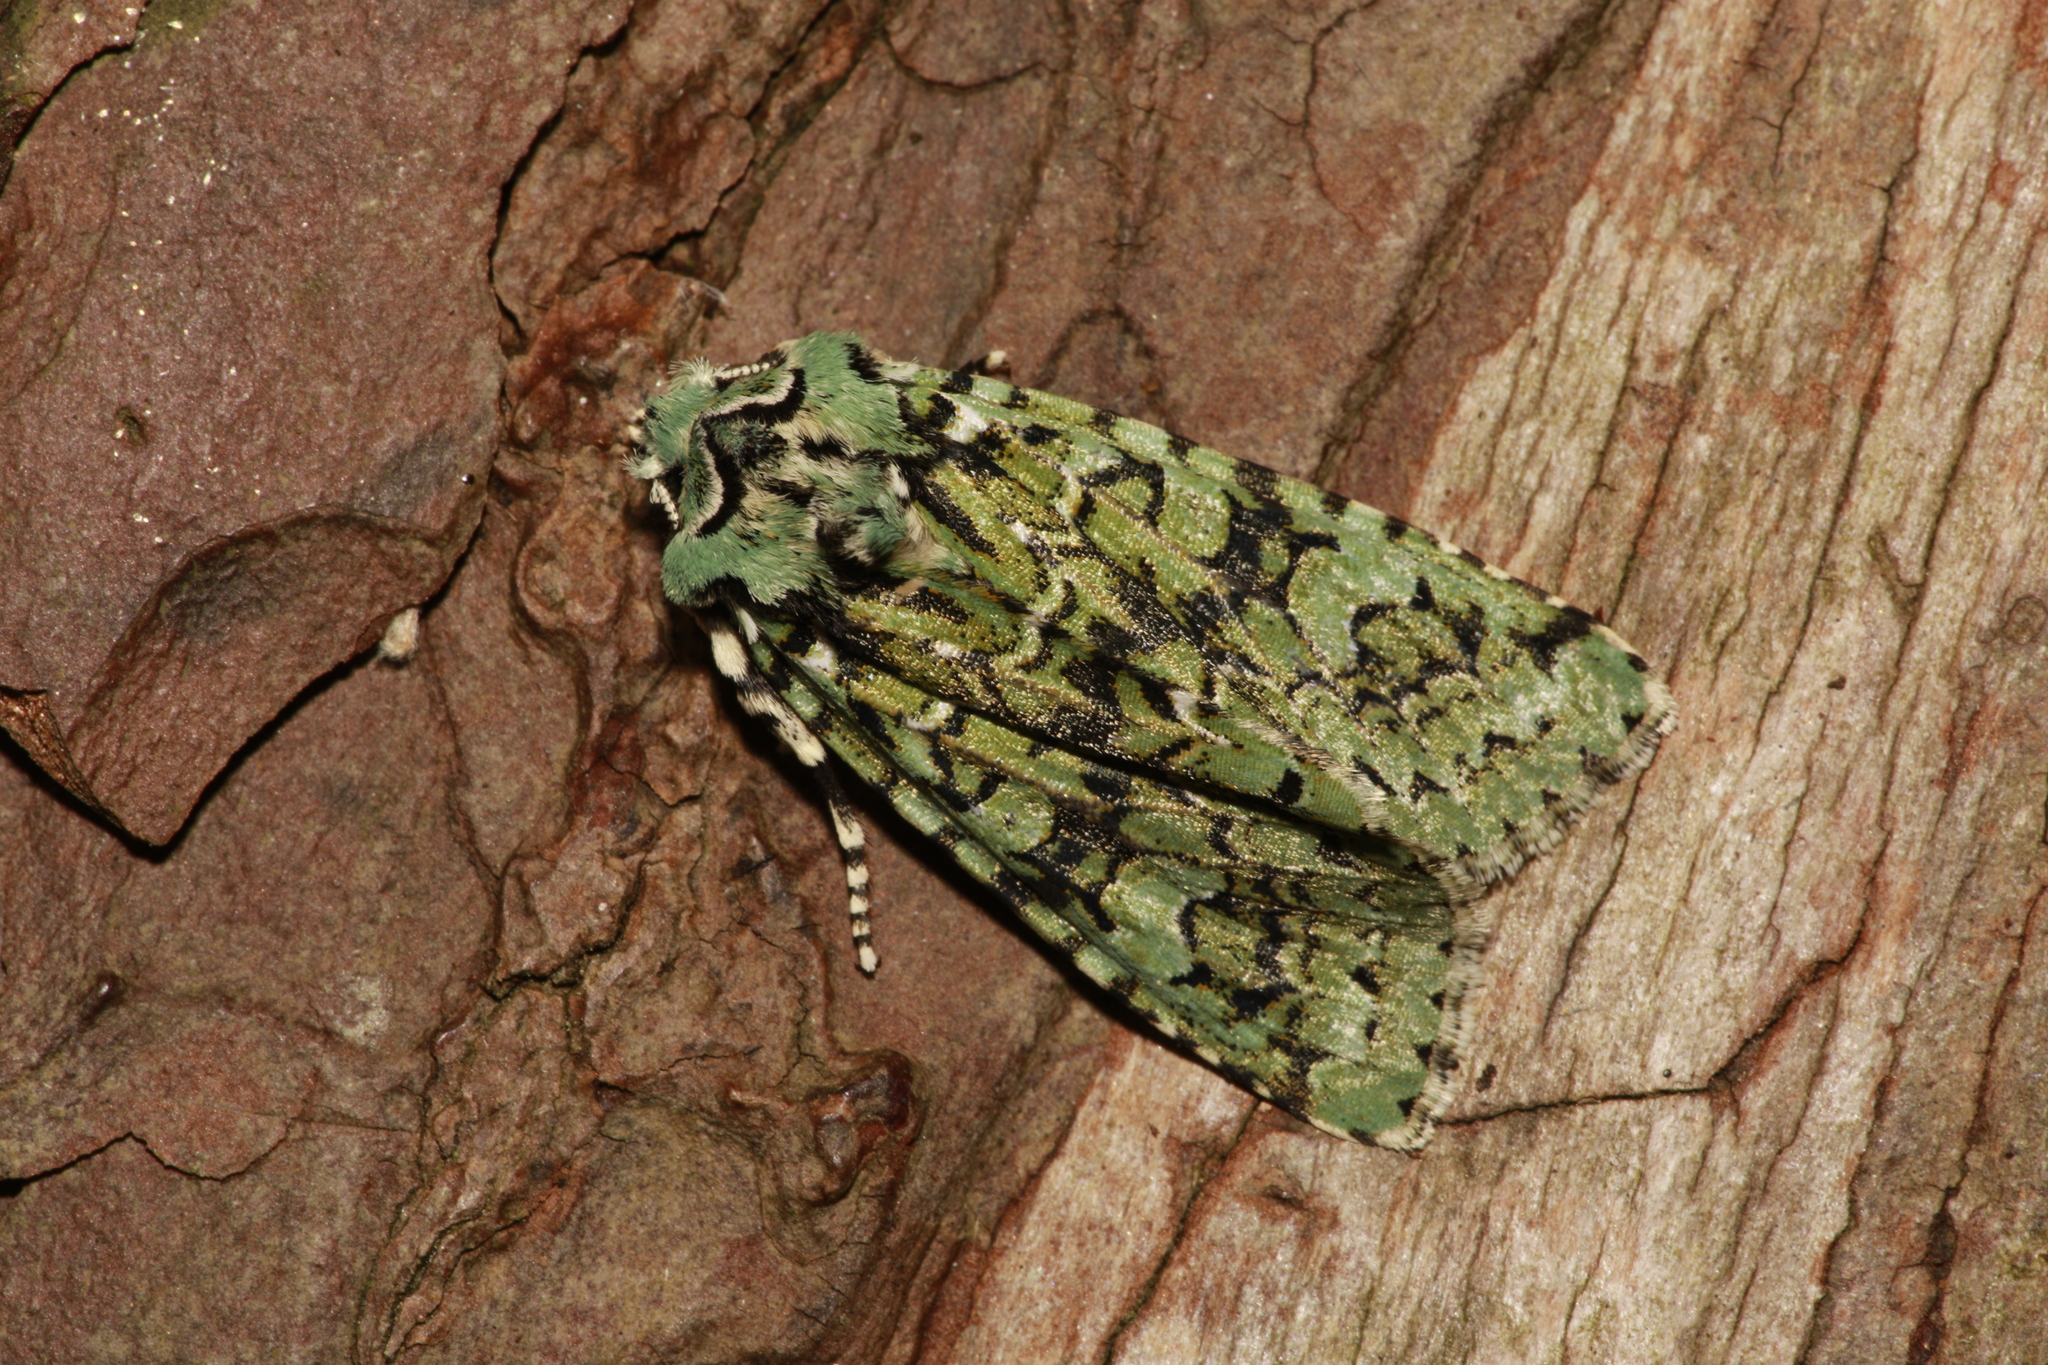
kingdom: Animalia
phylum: Arthropoda
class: Insecta
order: Lepidoptera
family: Noctuidae
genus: Griposia
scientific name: Griposia aprilina
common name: Merveille du jour
